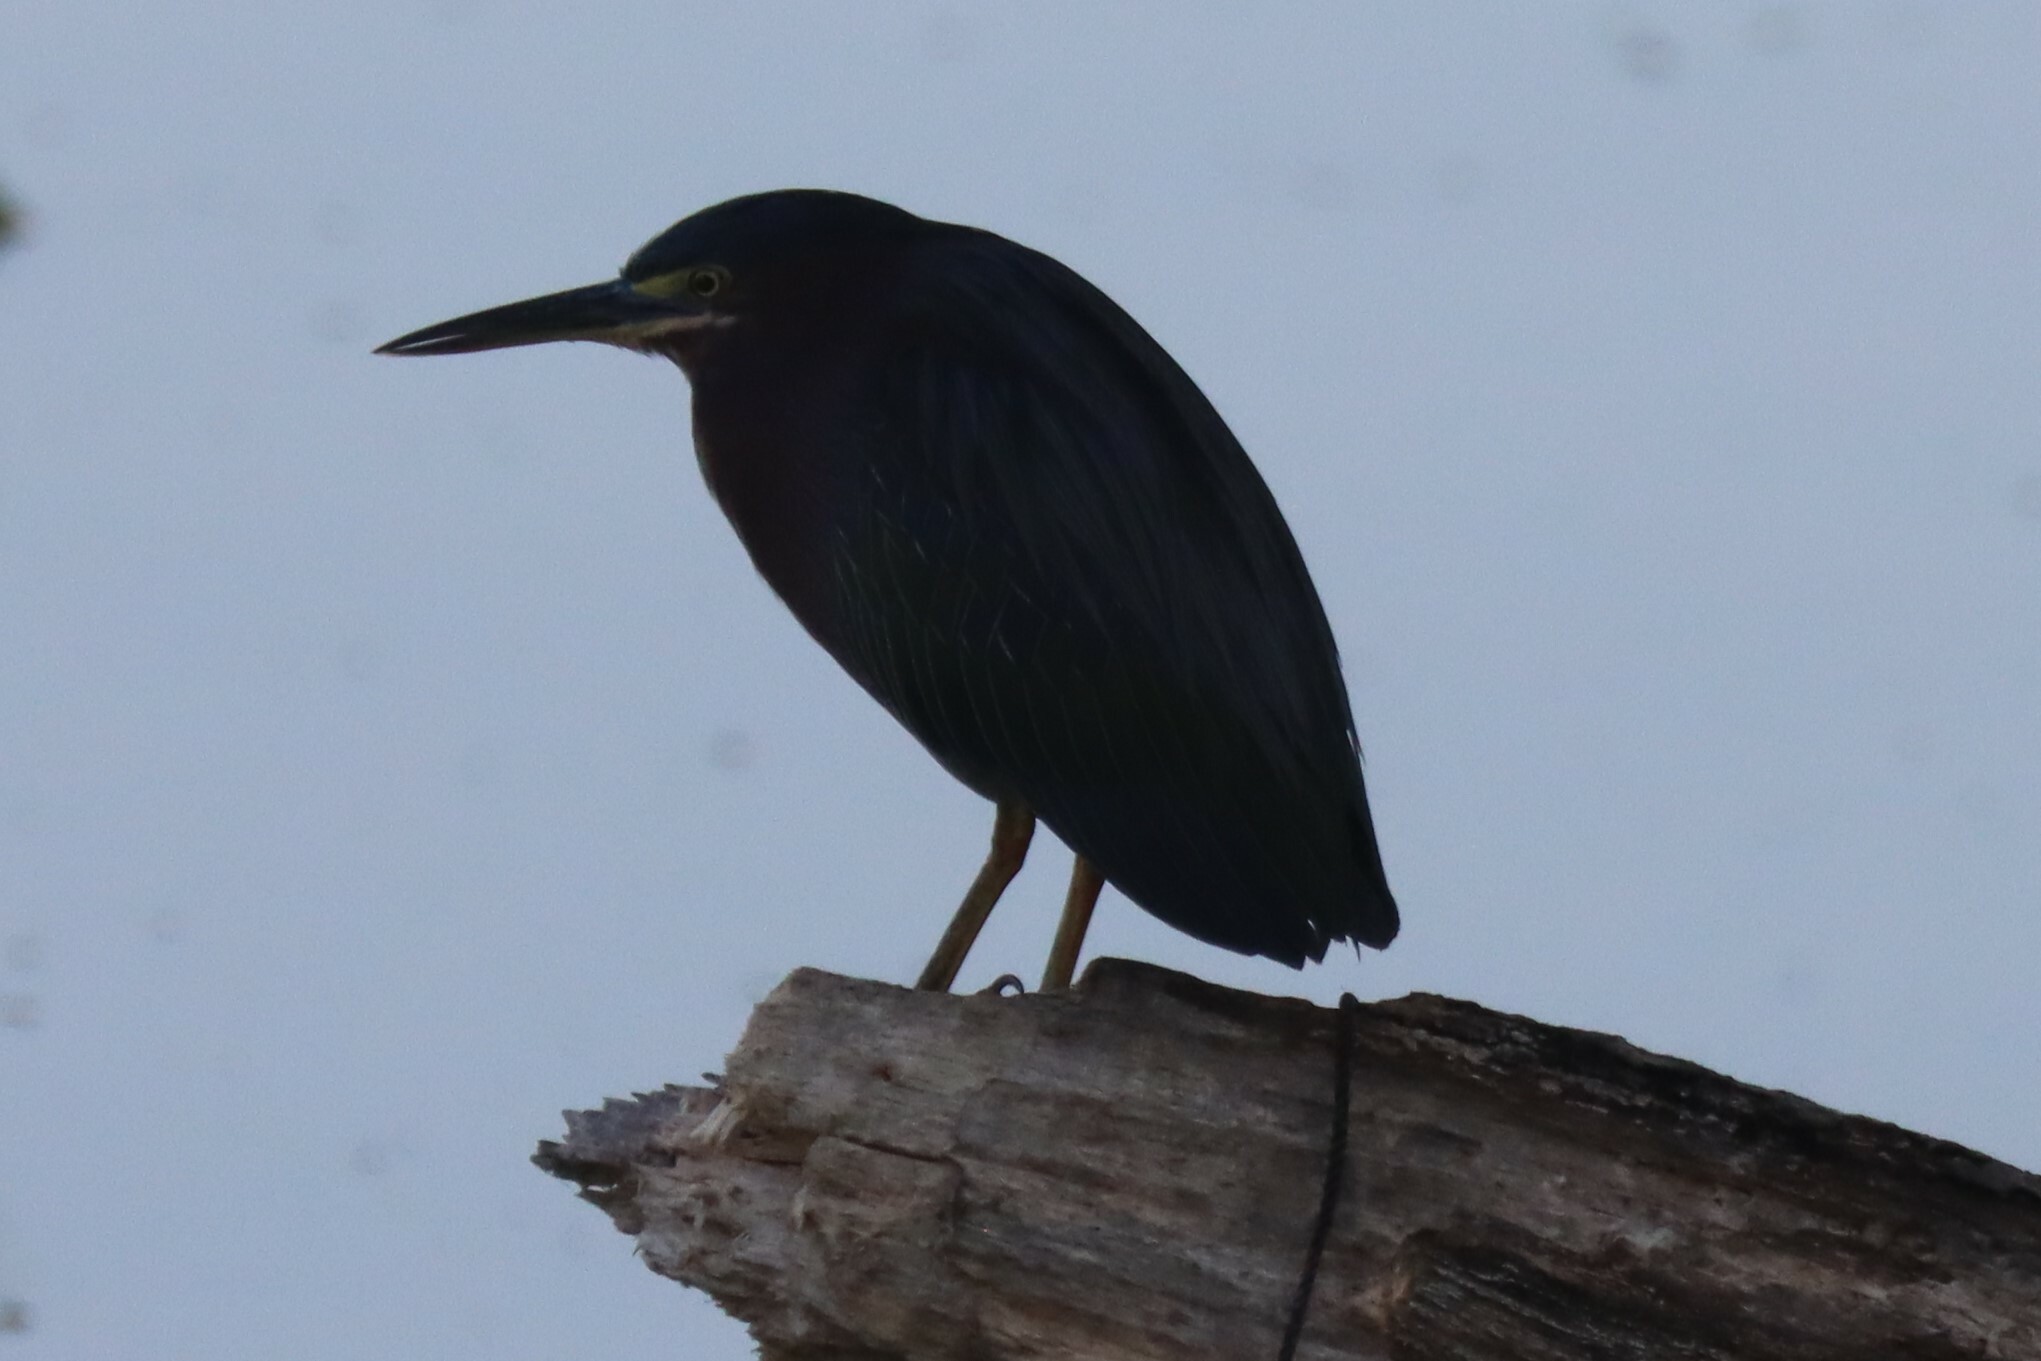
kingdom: Animalia
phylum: Chordata
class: Aves
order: Pelecaniformes
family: Ardeidae
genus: Butorides
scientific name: Butorides virescens
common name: Green heron
